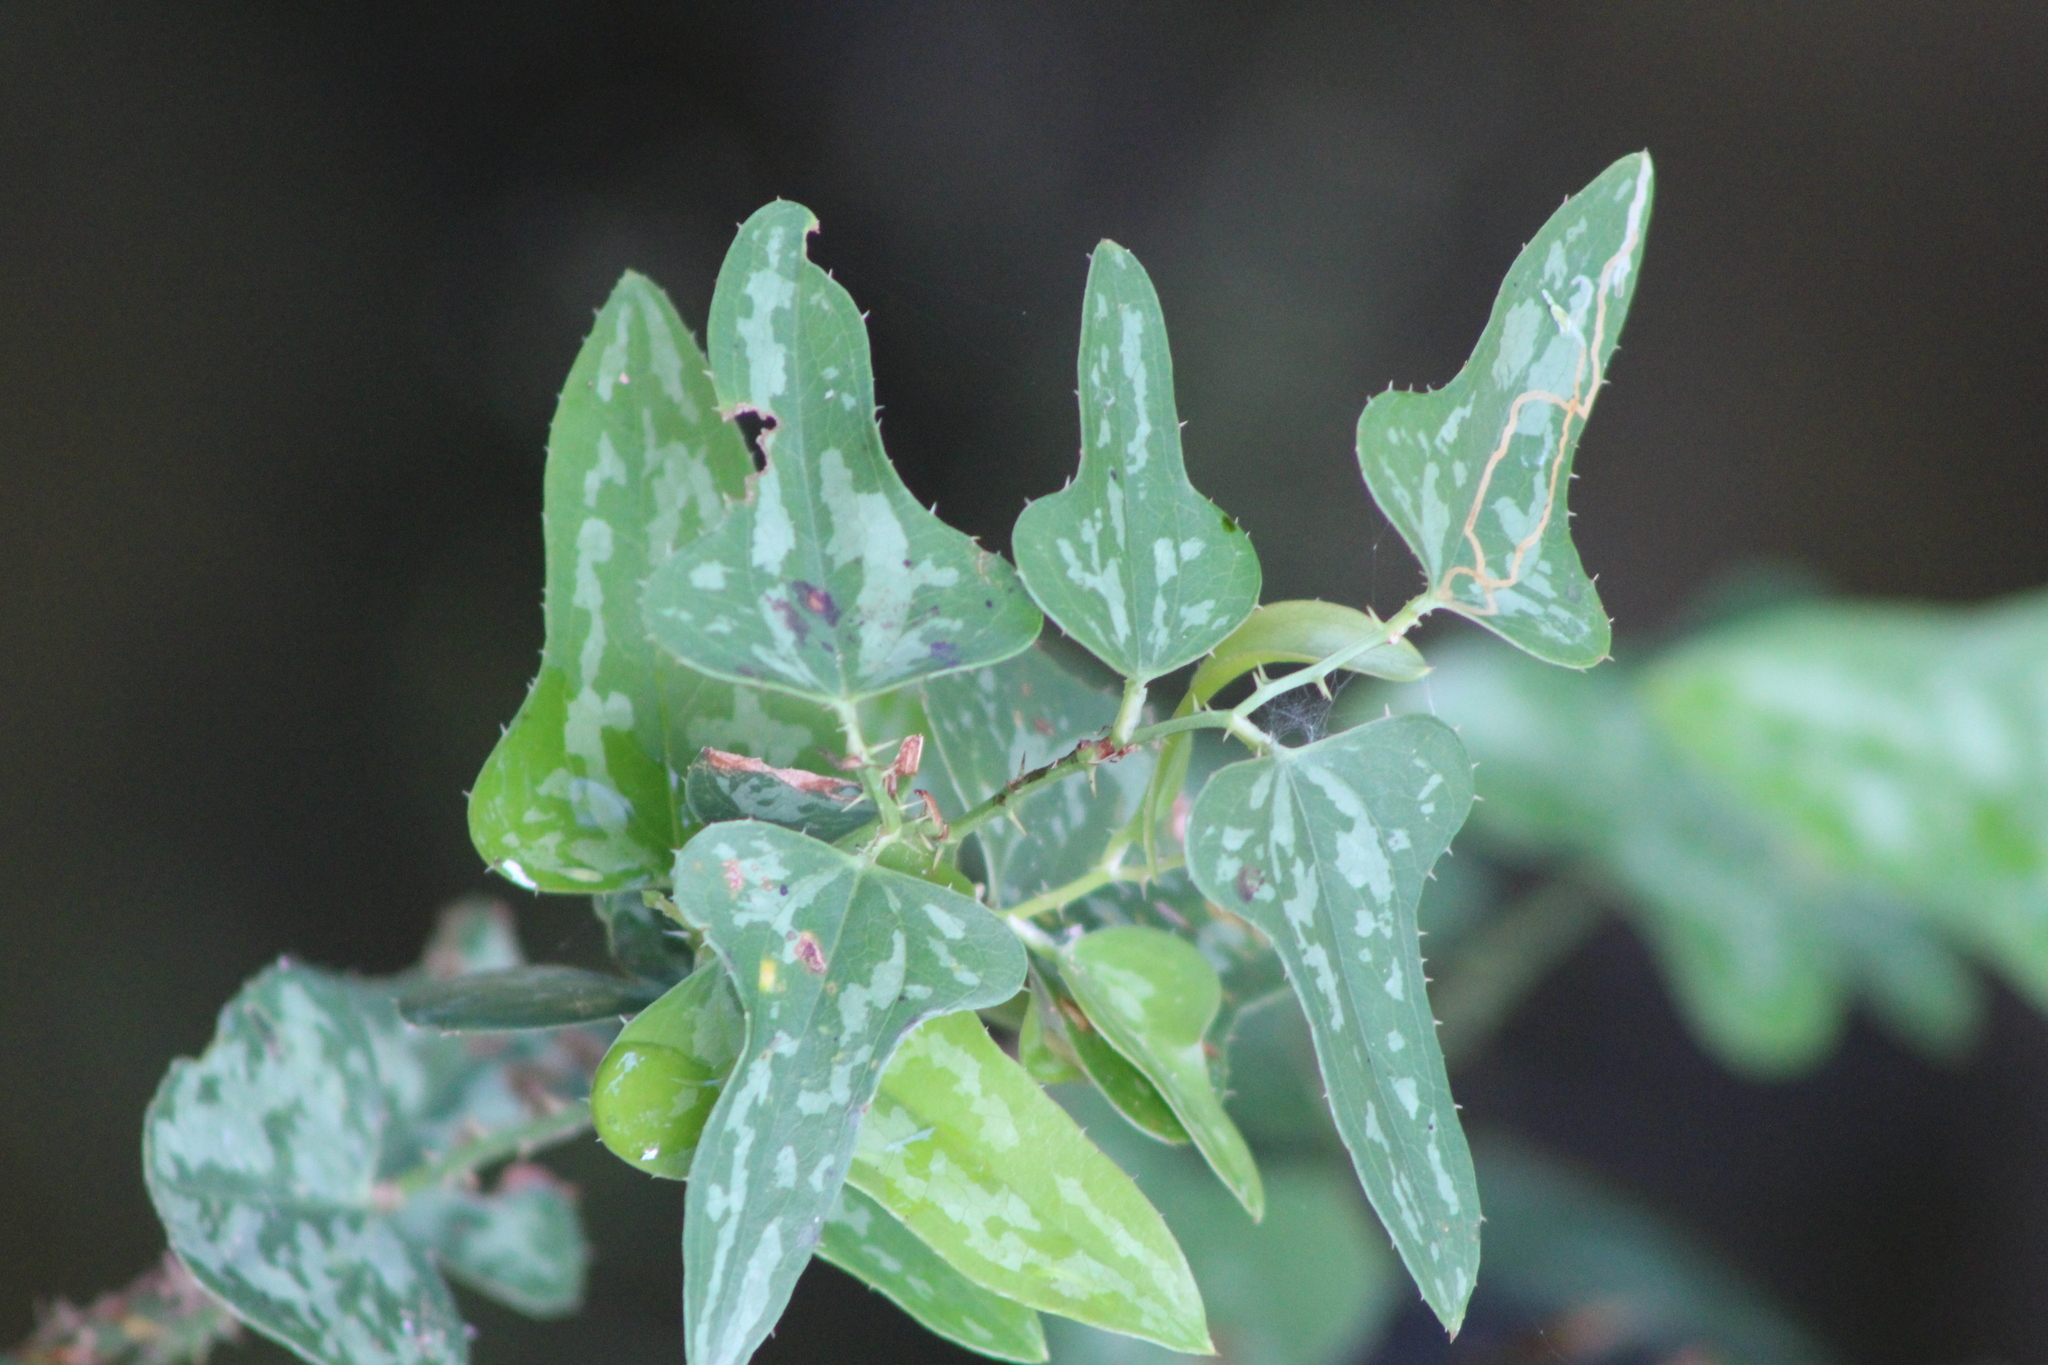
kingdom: Plantae
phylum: Tracheophyta
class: Liliopsida
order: Liliales
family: Smilacaceae
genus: Smilax
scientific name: Smilax bona-nox
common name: Catbrier
